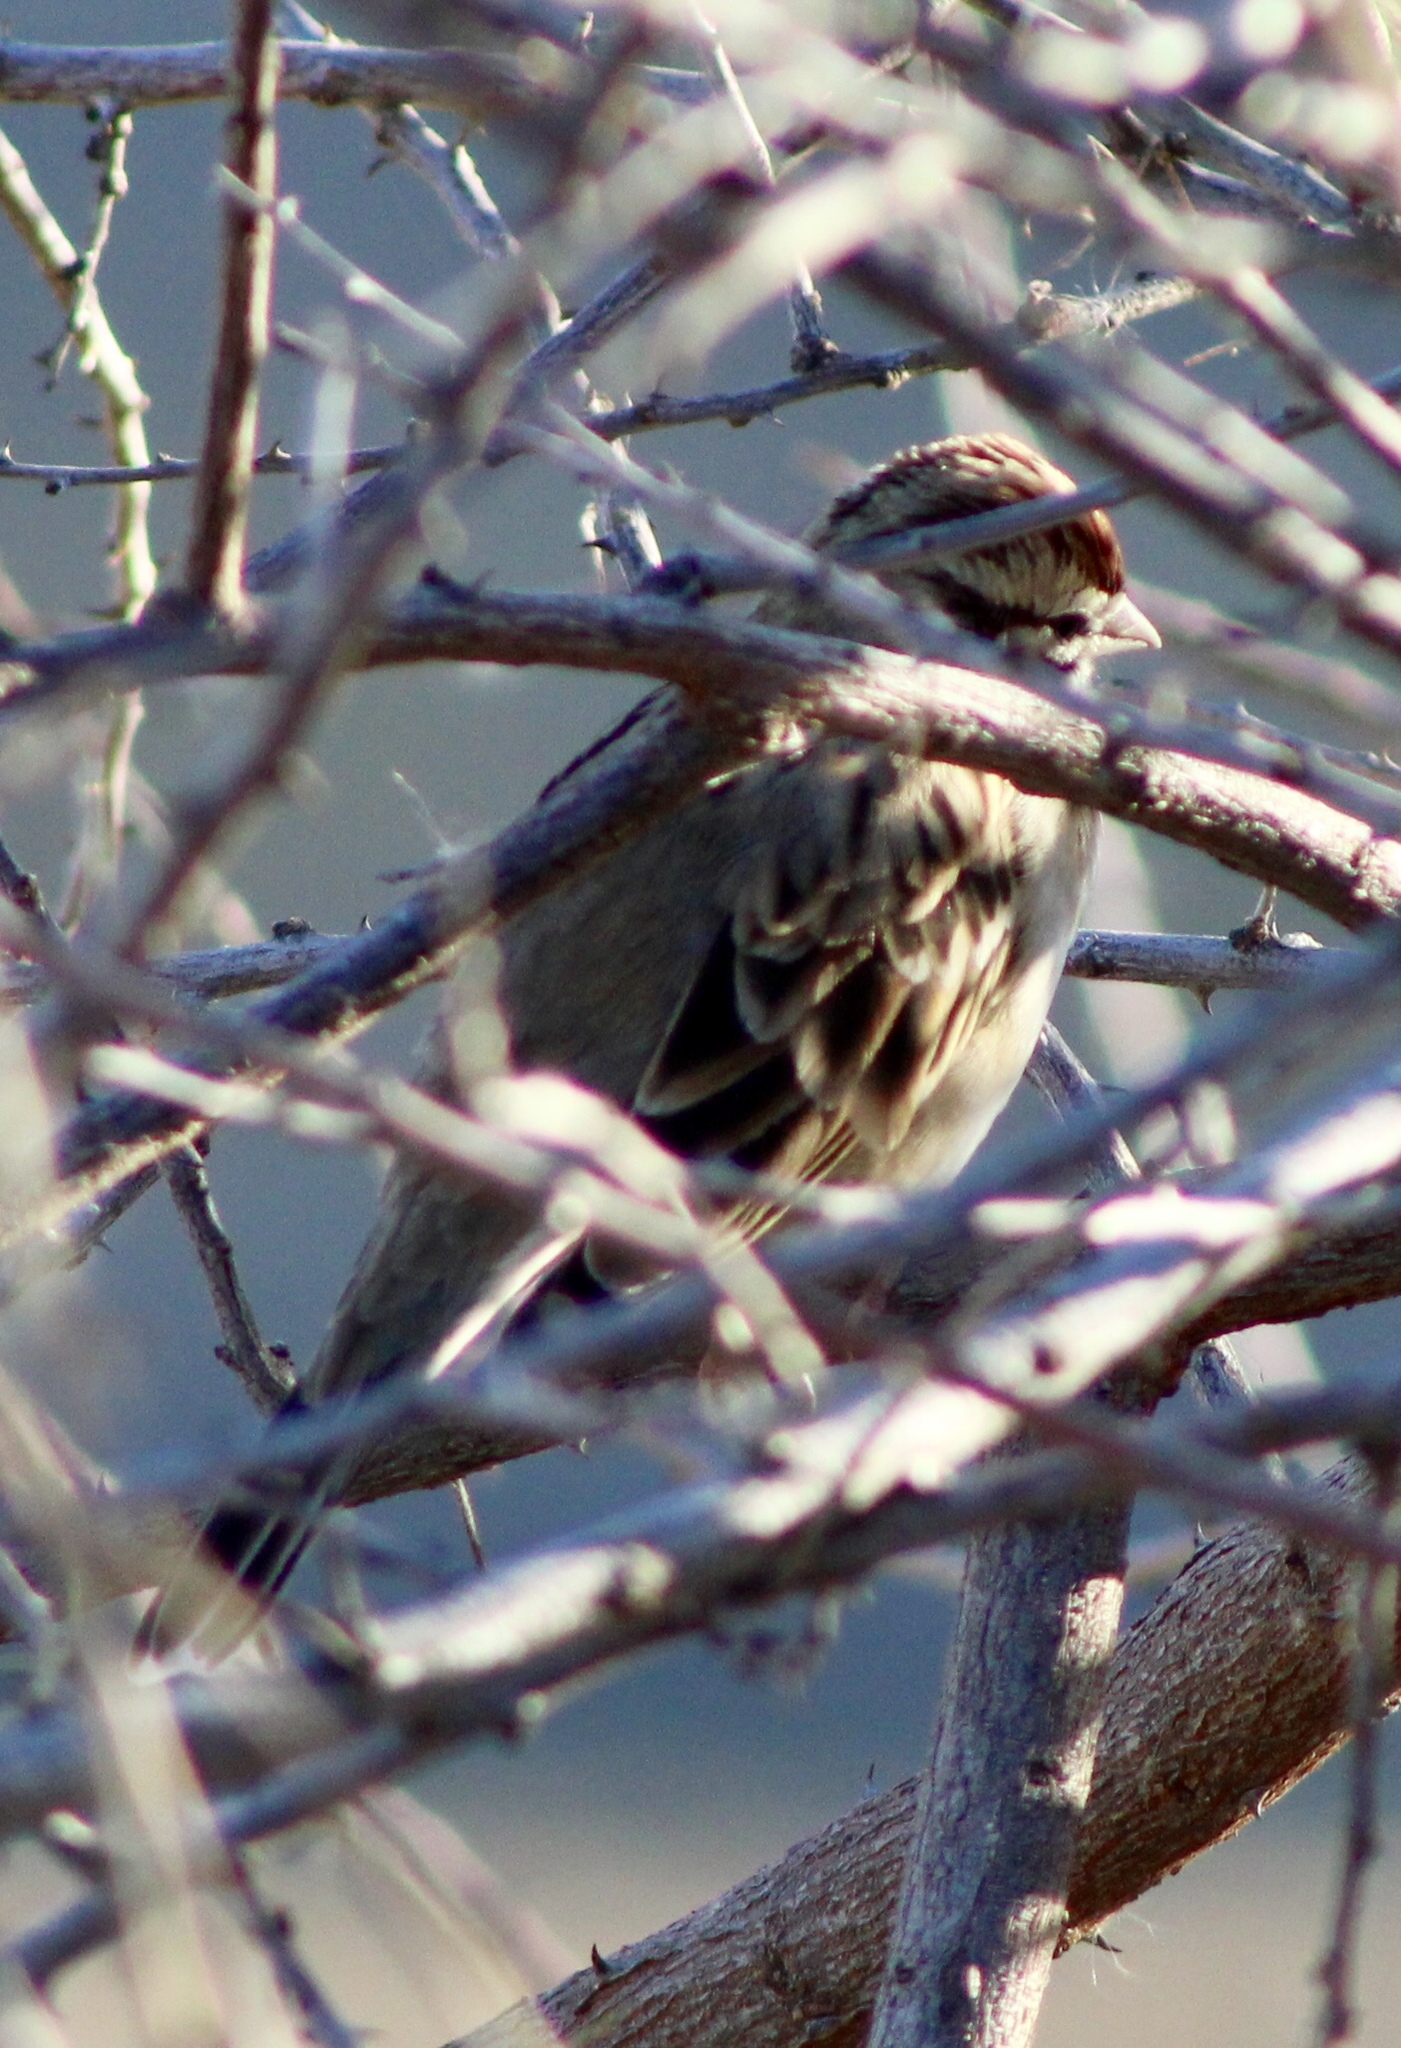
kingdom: Animalia
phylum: Chordata
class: Aves
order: Passeriformes
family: Passerellidae
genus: Chondestes
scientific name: Chondestes grammacus
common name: Lark sparrow
